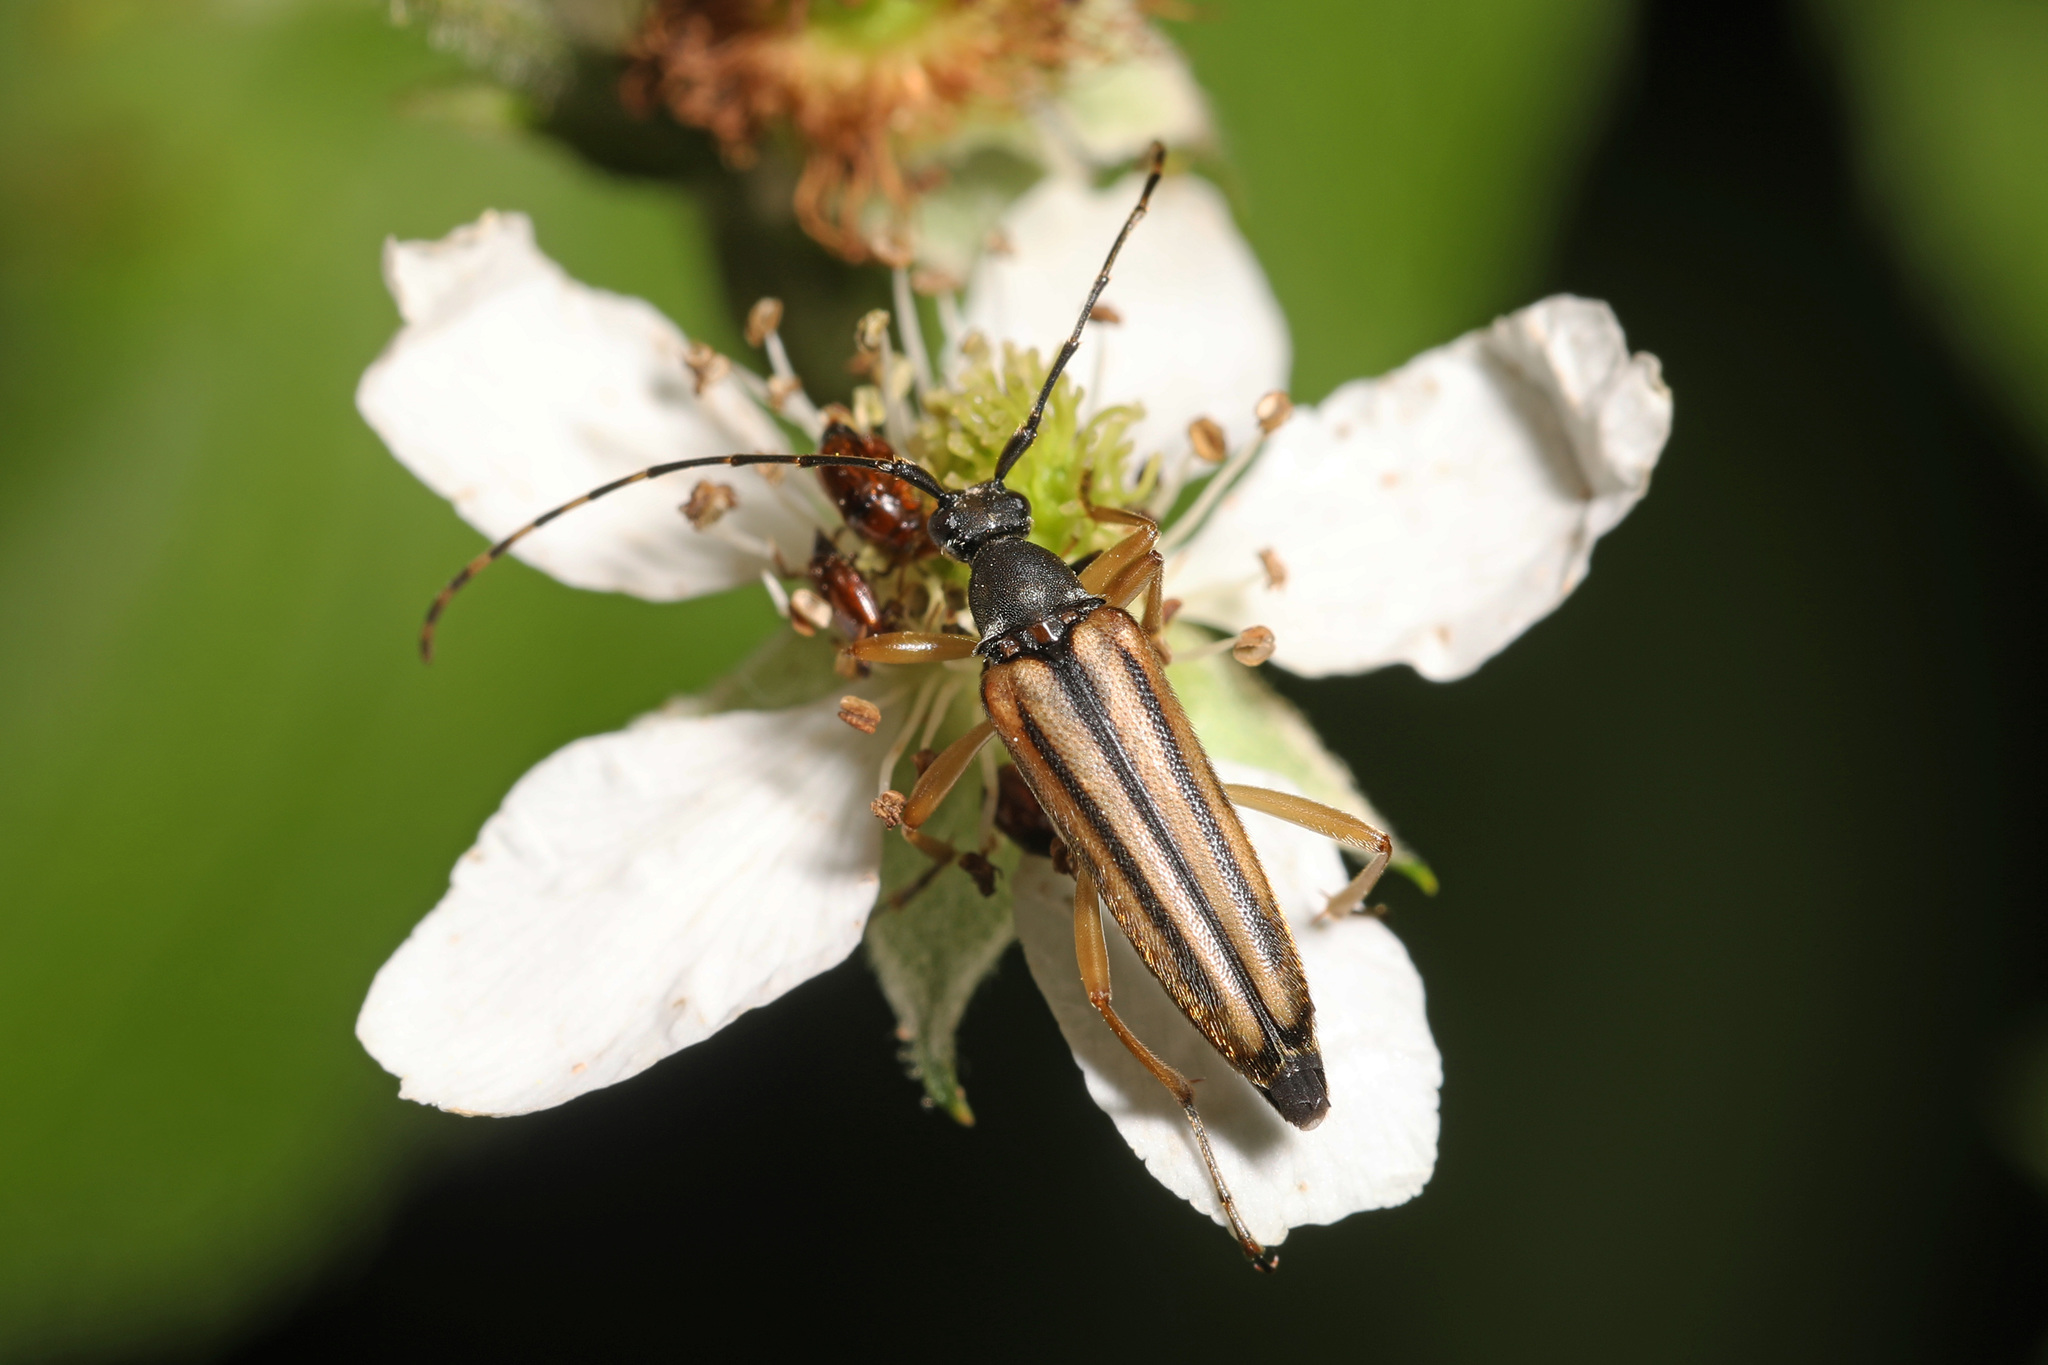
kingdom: Animalia
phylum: Arthropoda
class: Insecta
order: Coleoptera
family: Cerambycidae
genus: Analeptura
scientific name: Analeptura lineola
